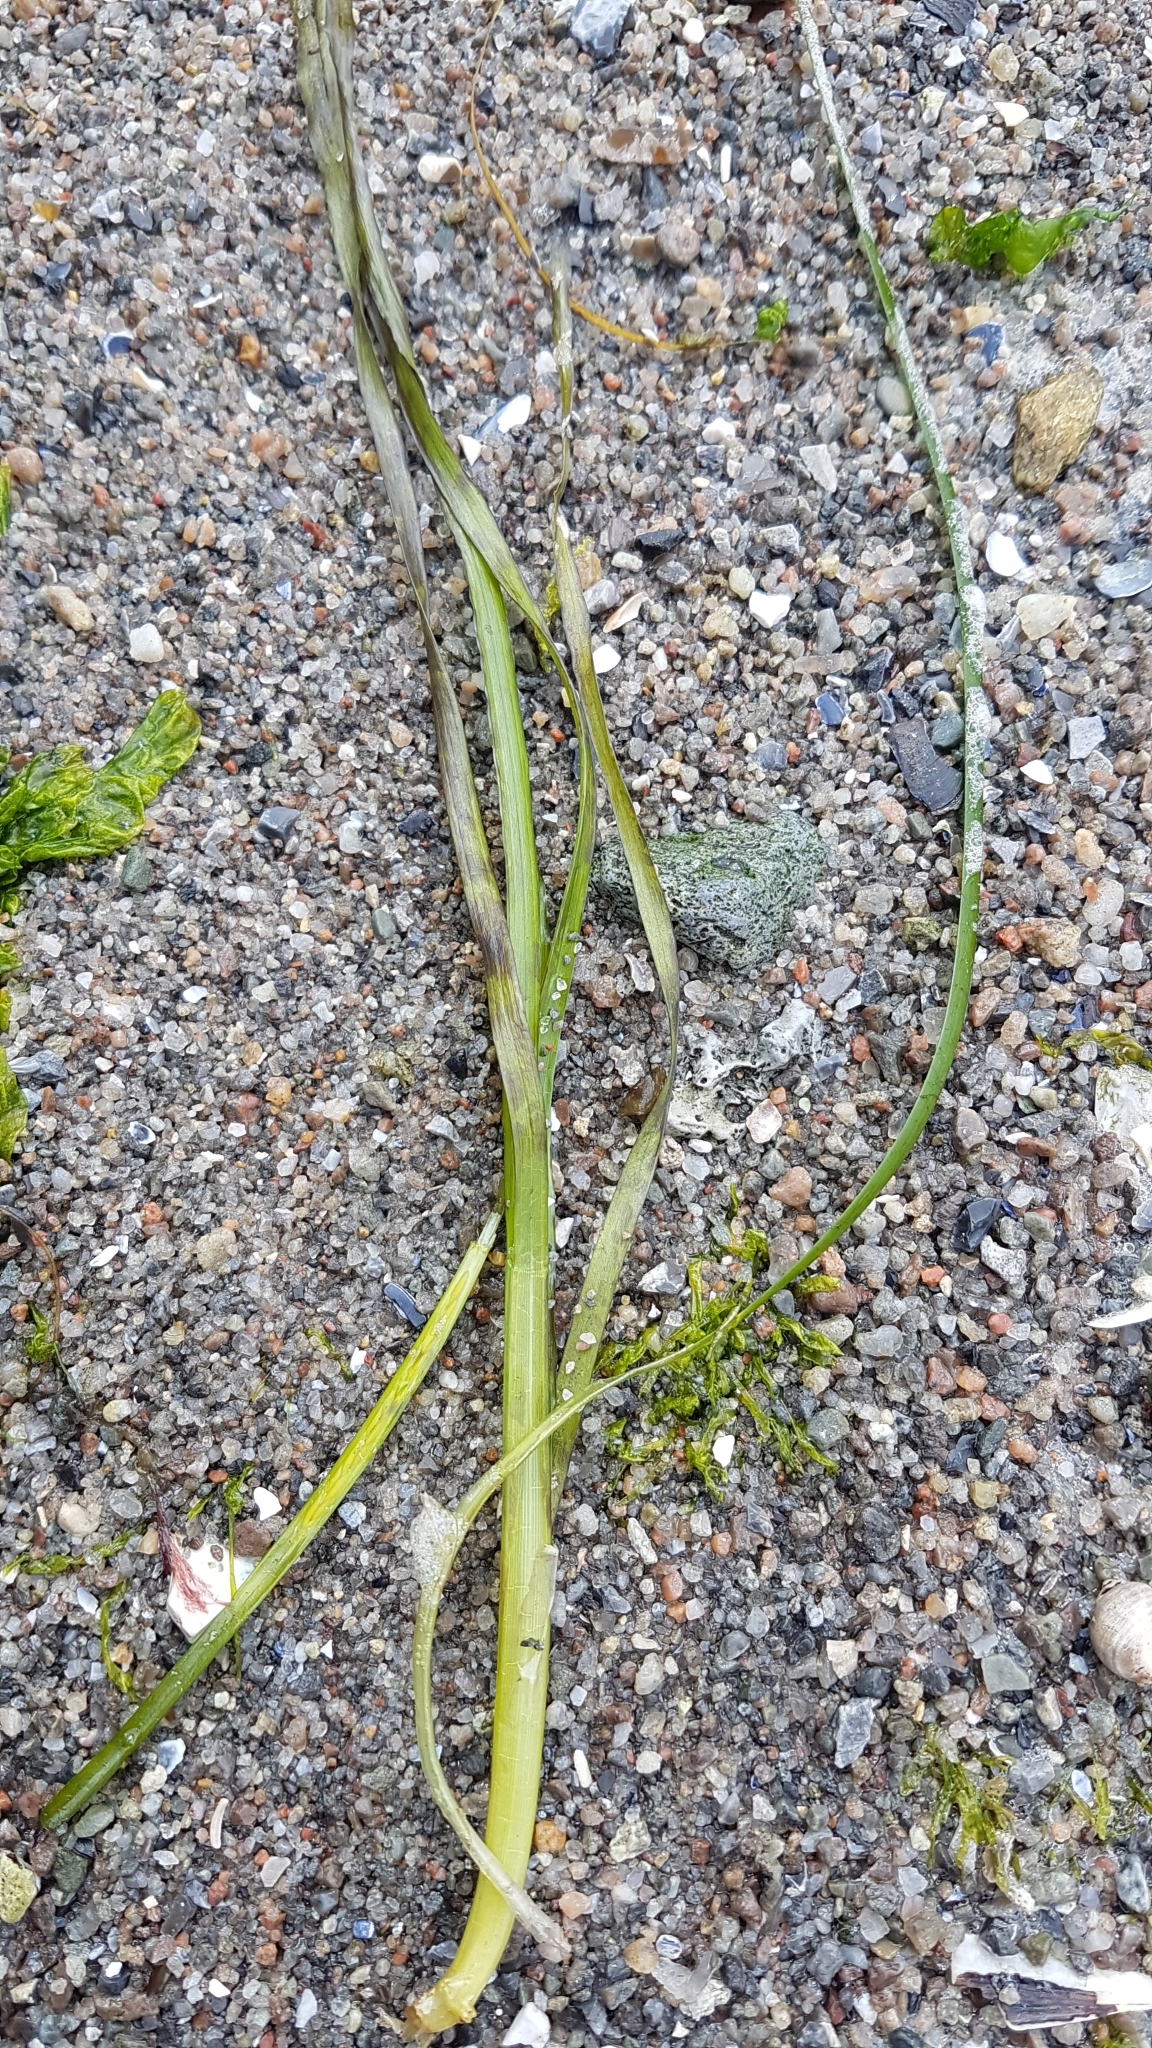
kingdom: Plantae
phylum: Tracheophyta
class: Liliopsida
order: Alismatales
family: Zosteraceae
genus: Zostera
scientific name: Zostera marina
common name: Eelgrass
